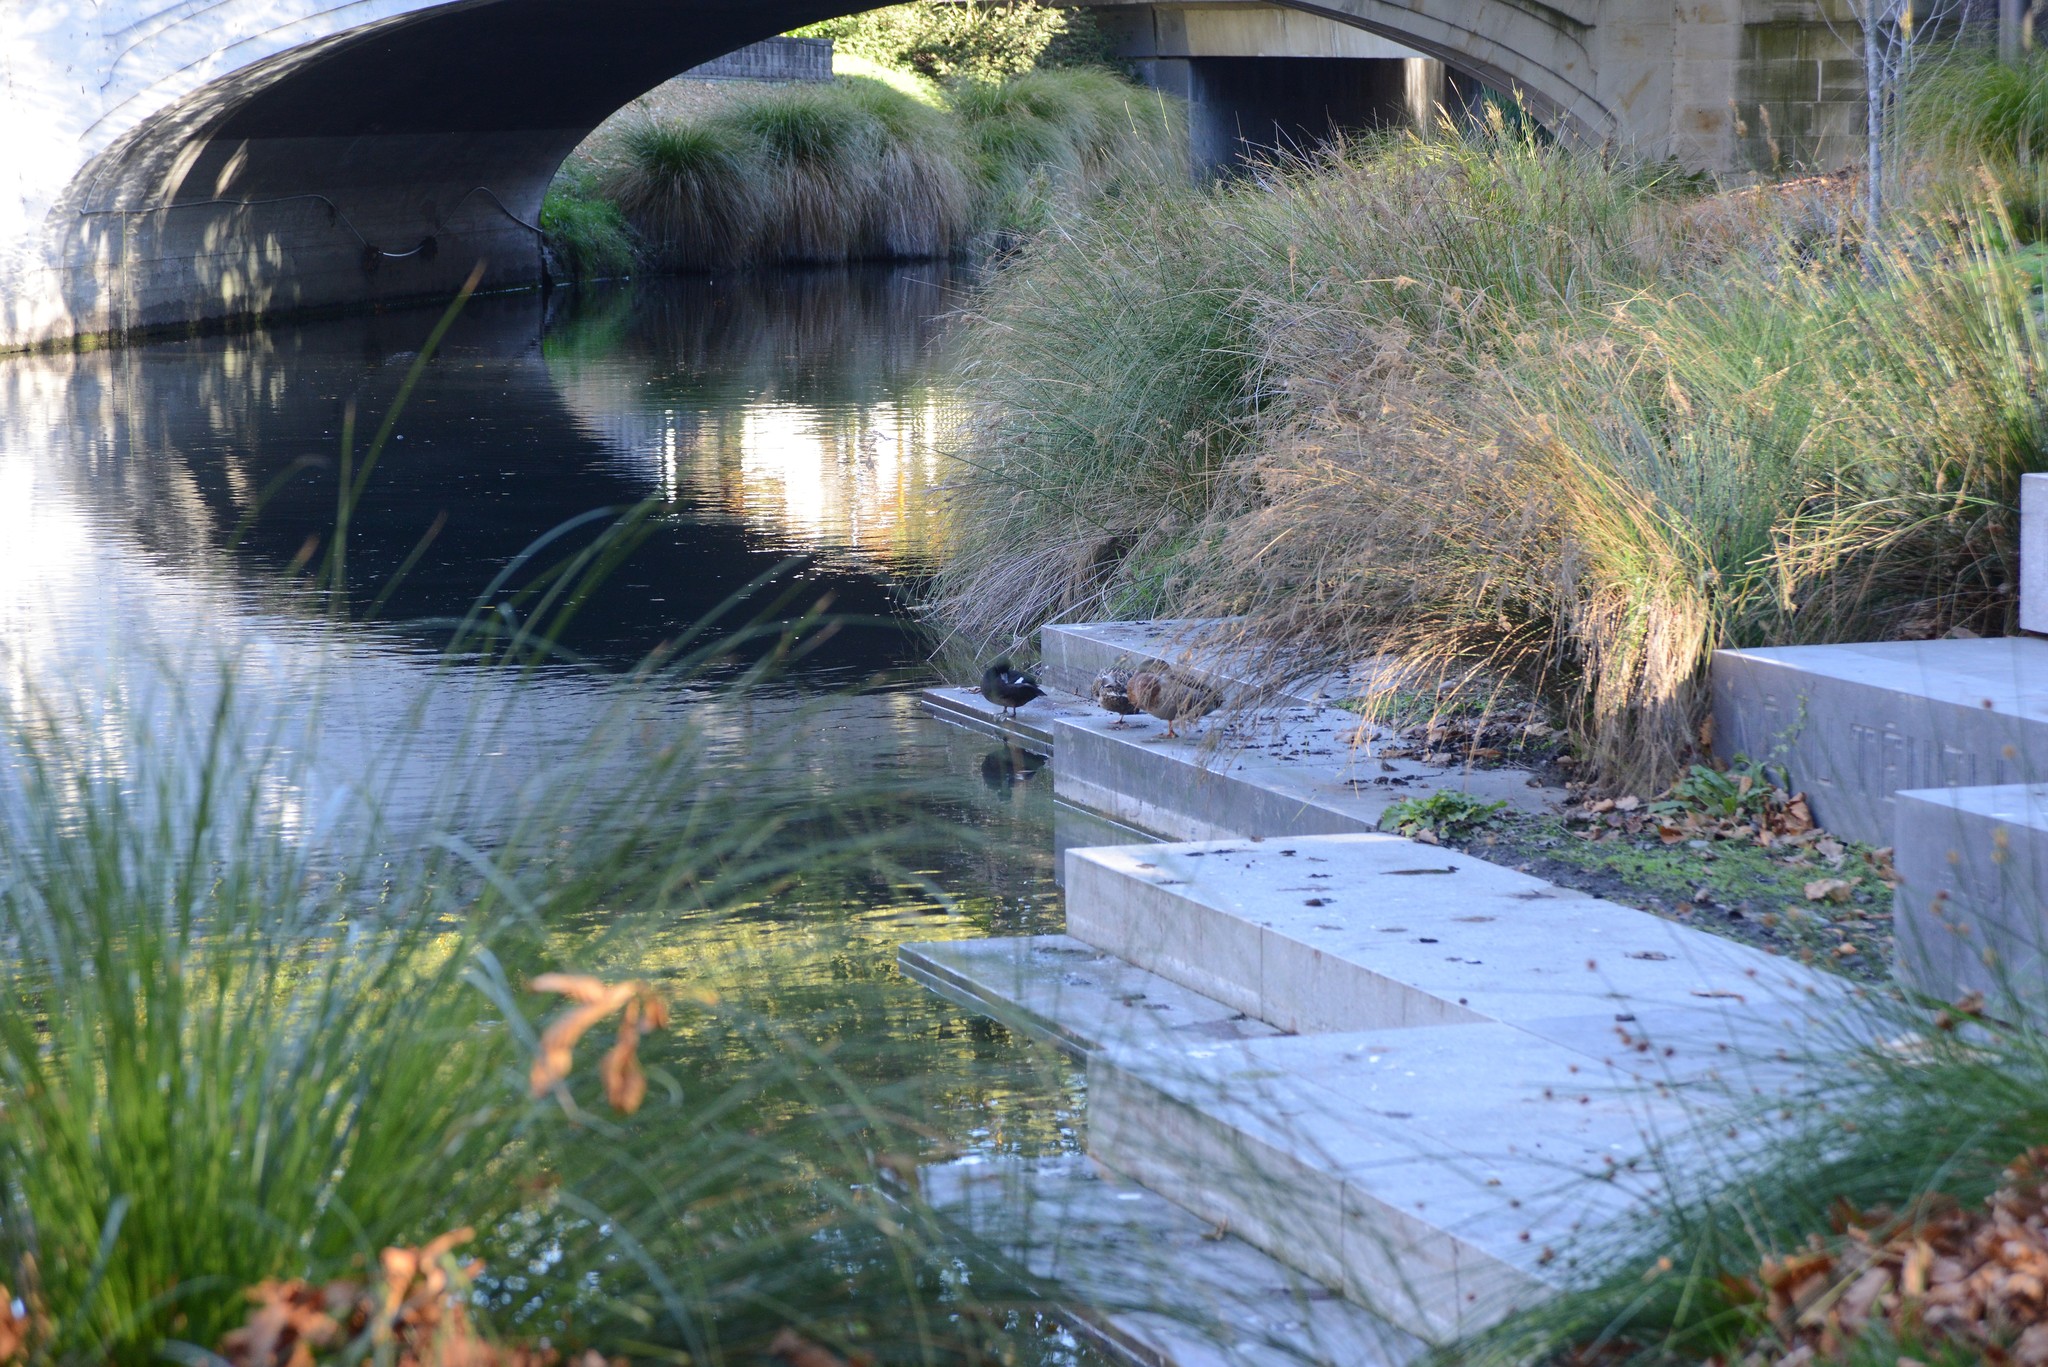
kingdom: Animalia
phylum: Chordata
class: Aves
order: Anseriformes
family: Anatidae
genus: Anas
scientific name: Anas platyrhynchos
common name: Mallard
